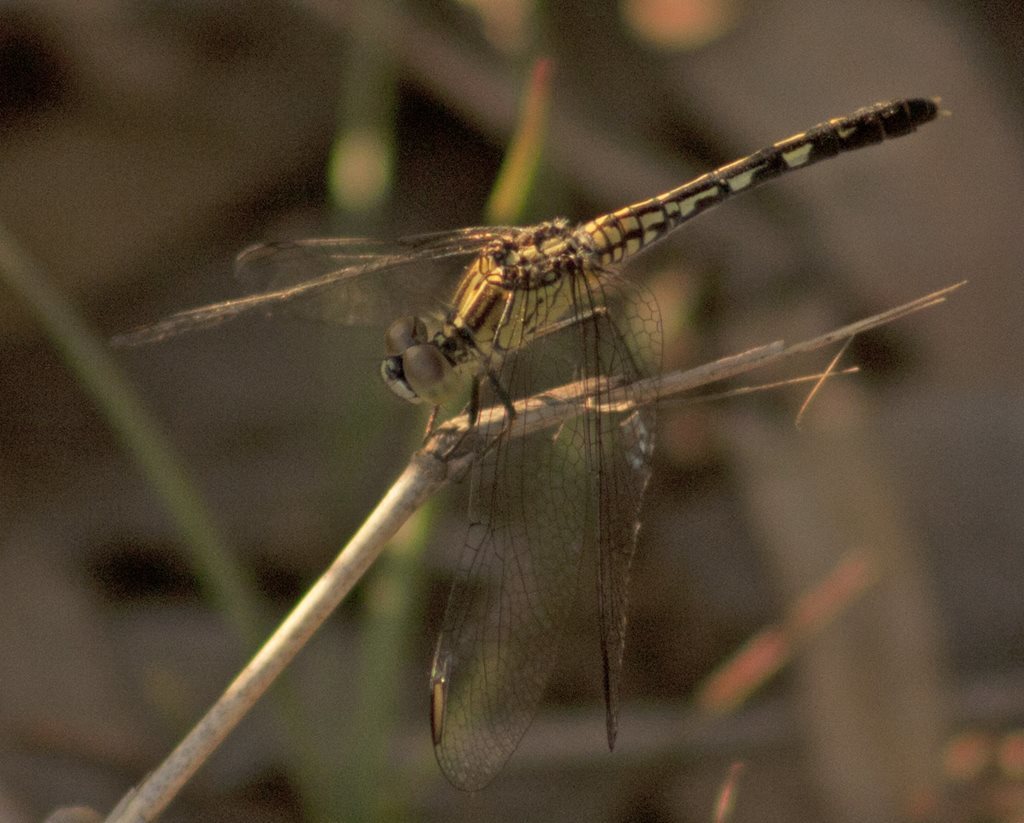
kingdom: Animalia
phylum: Arthropoda
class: Insecta
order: Odonata
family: Libellulidae
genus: Diplacodes
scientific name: Diplacodes trivialis
